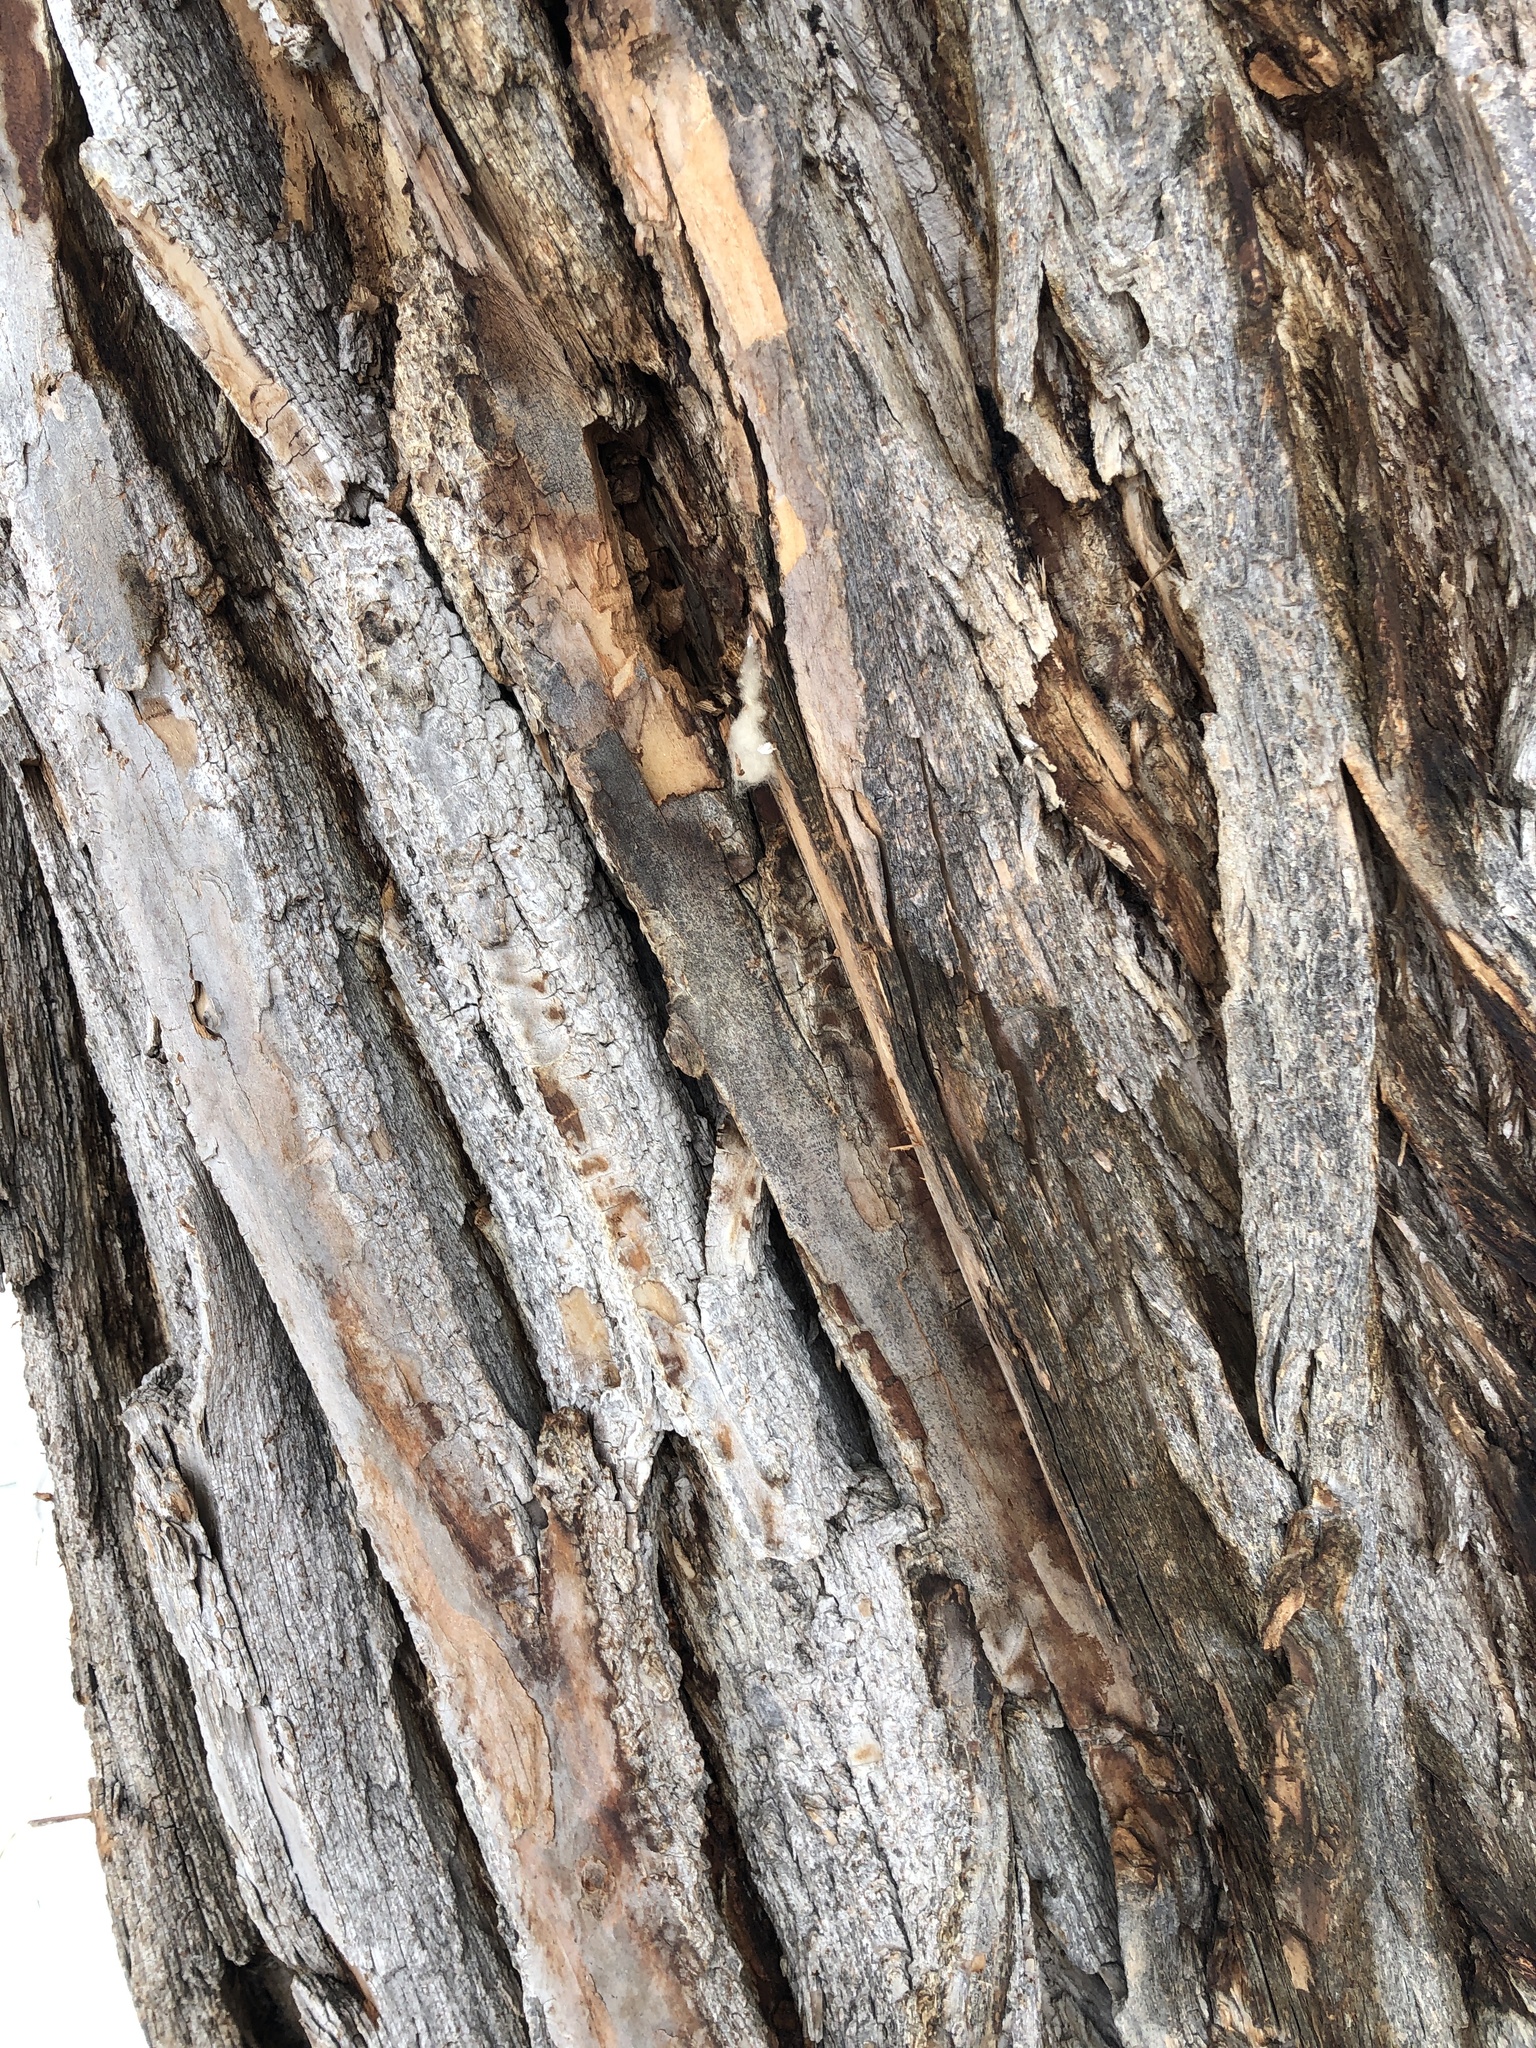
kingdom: Plantae
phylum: Tracheophyta
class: Magnoliopsida
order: Malpighiales
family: Salicaceae
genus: Populus
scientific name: Populus deltoides
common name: Eastern cottonwood
